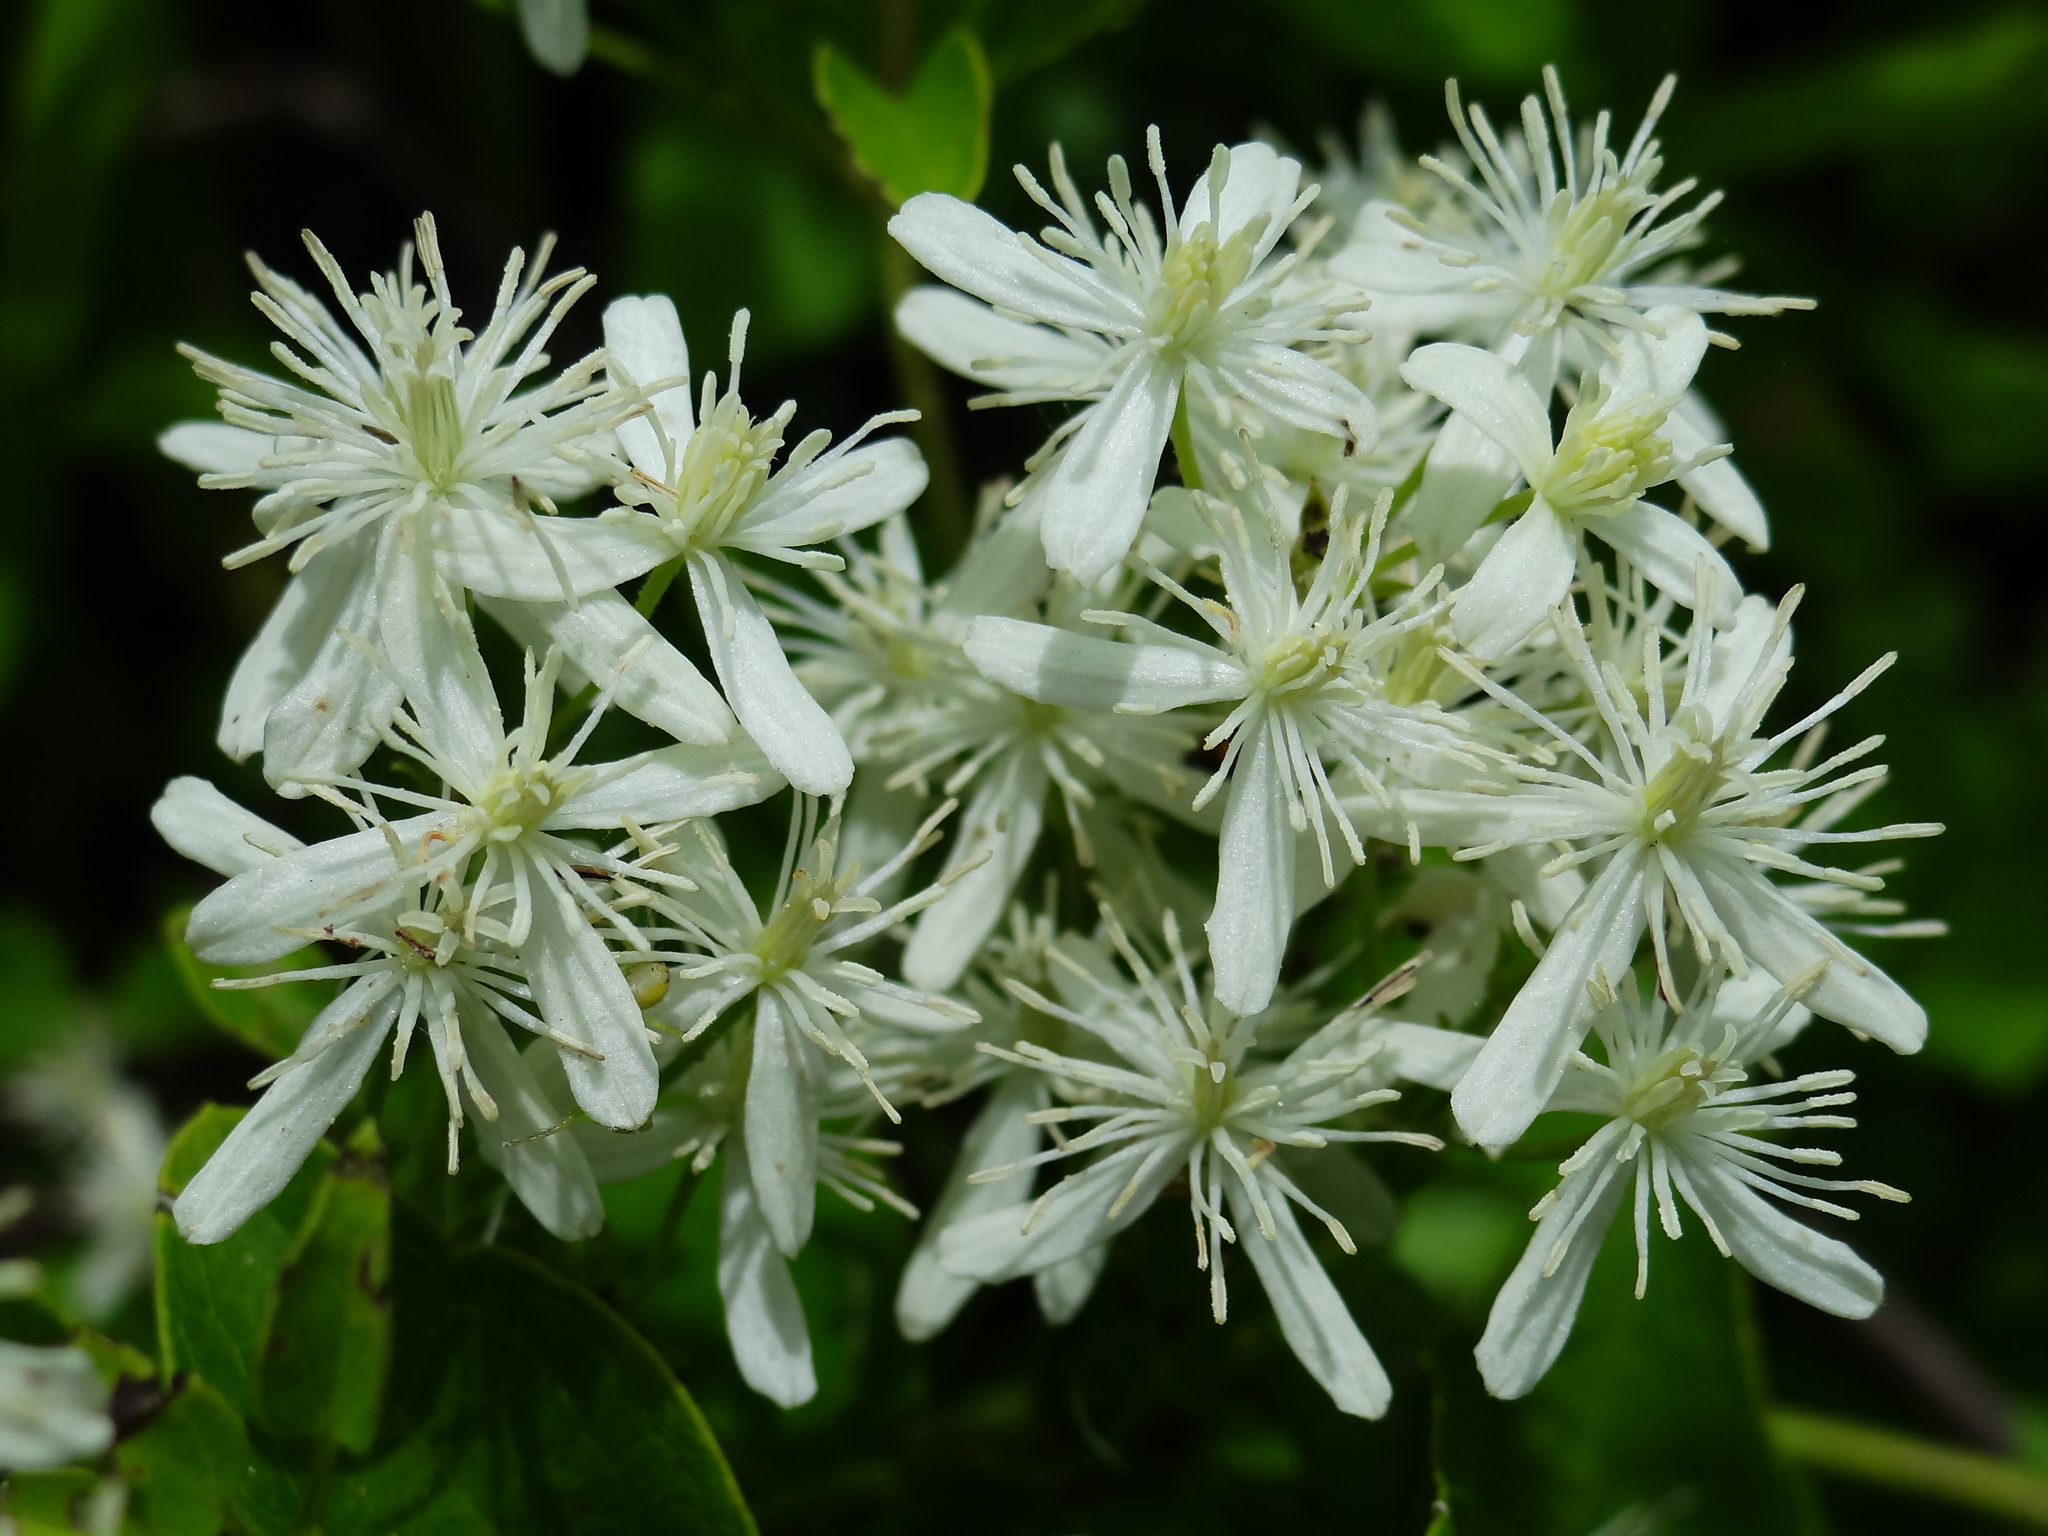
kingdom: Plantae
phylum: Tracheophyta
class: Magnoliopsida
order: Ranunculales
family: Ranunculaceae
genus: Clematis
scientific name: Clematis chinensis
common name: Chinese clematis
